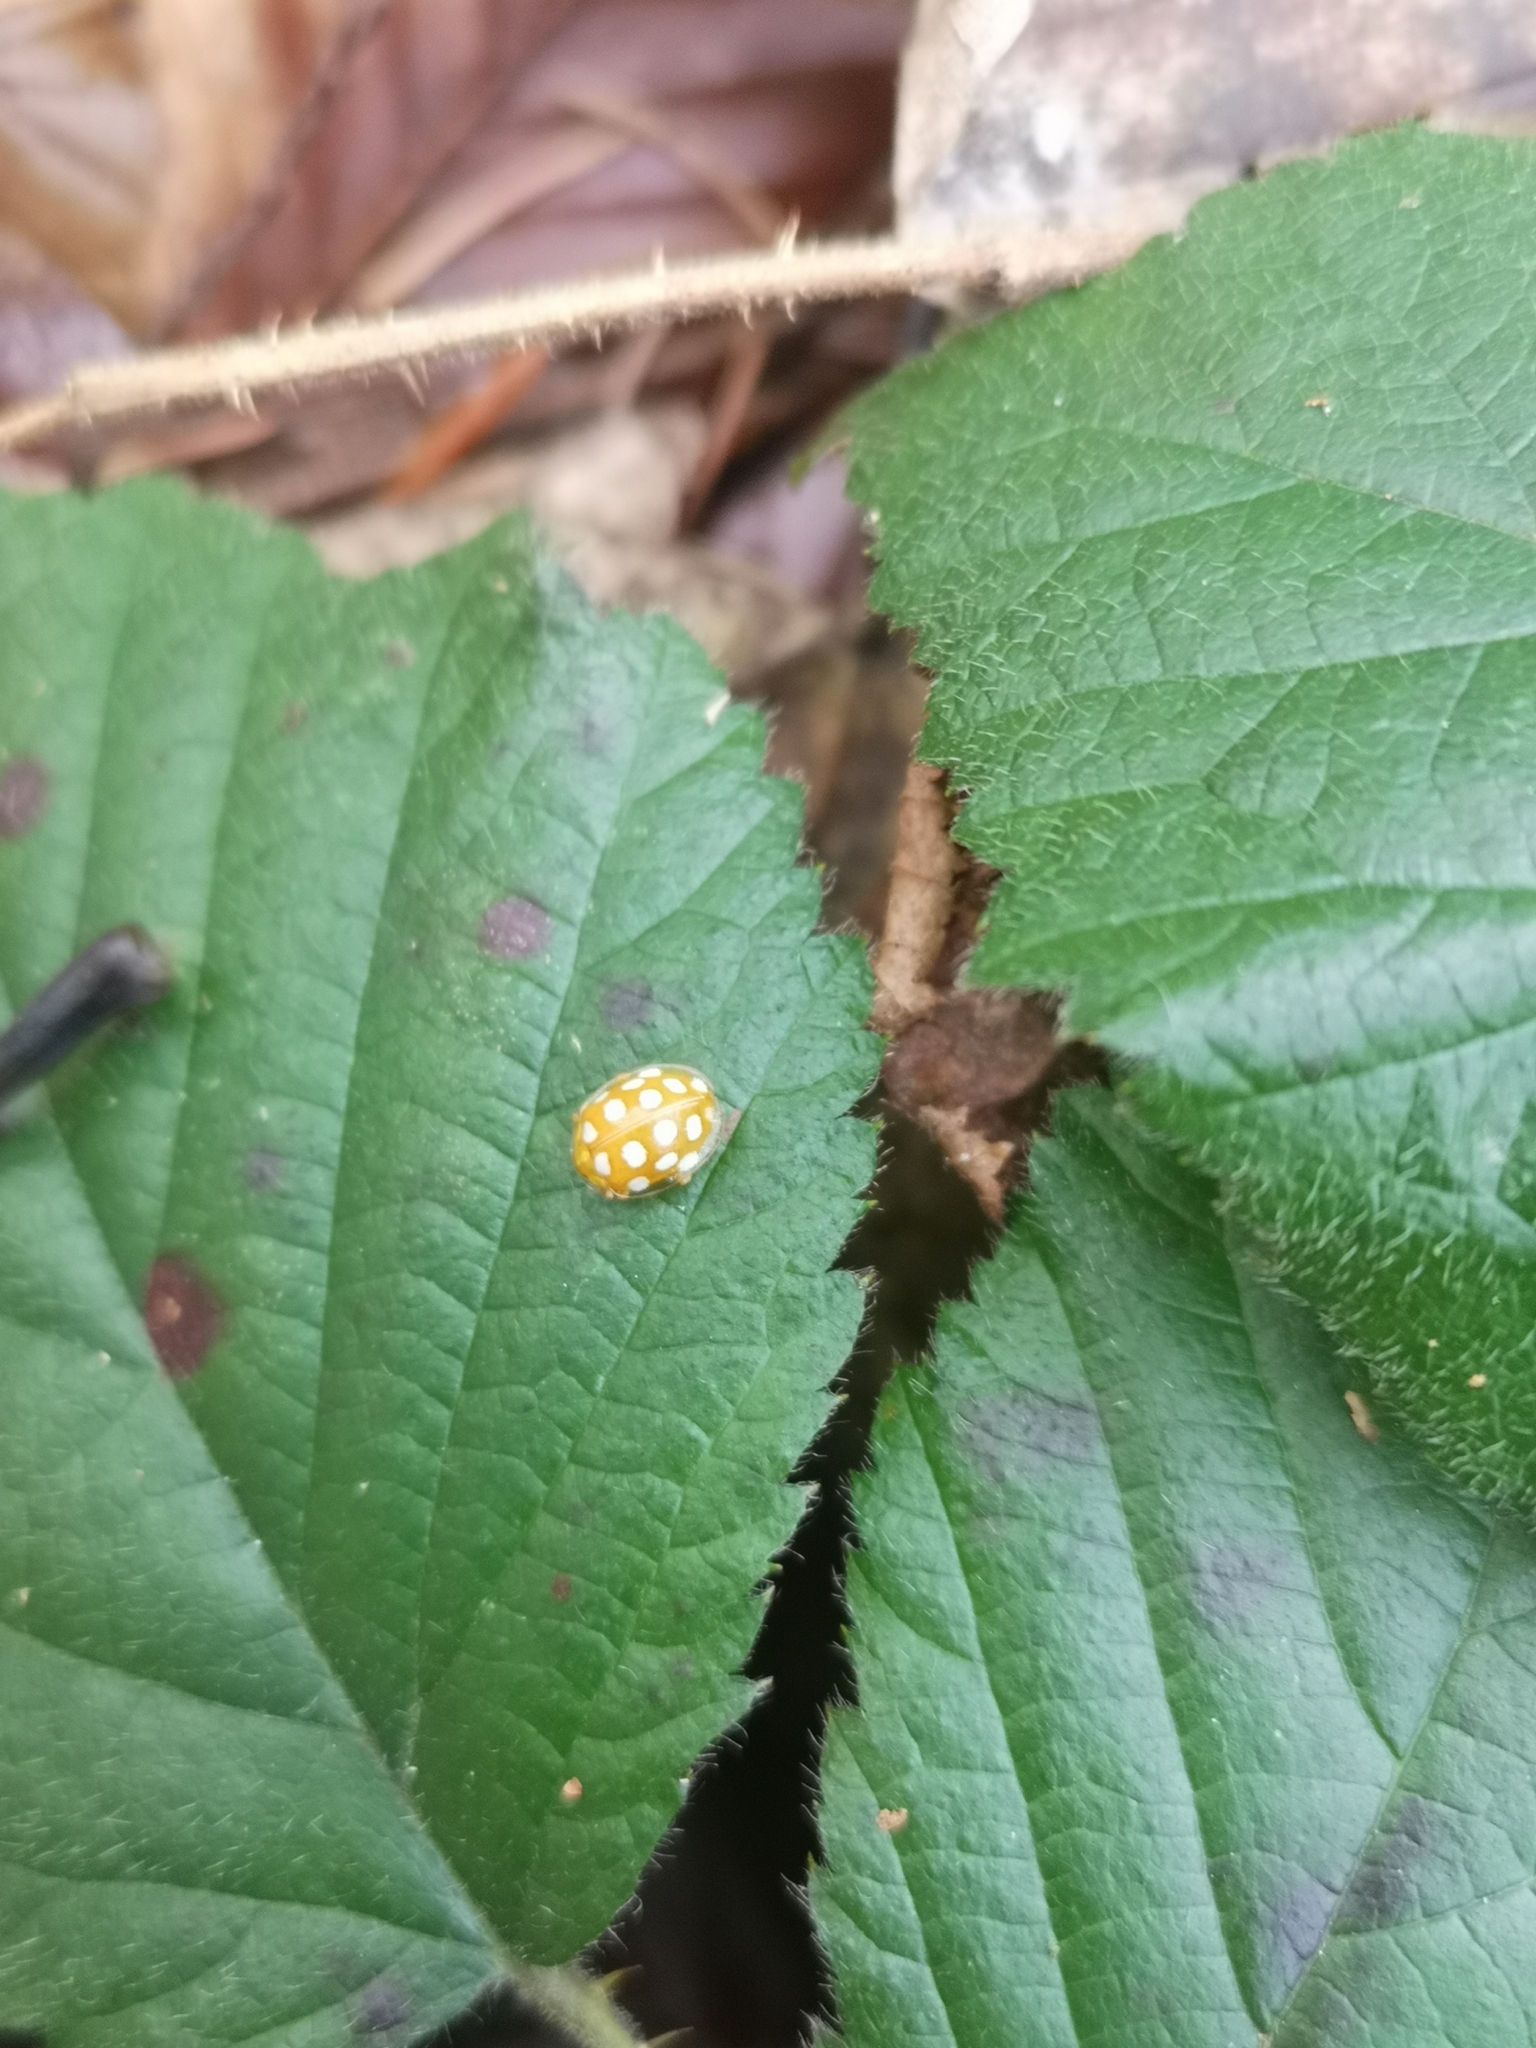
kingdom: Animalia
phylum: Arthropoda
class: Insecta
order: Coleoptera
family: Coccinellidae
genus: Halyzia
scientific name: Halyzia sedecimguttata
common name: Orange ladybird
